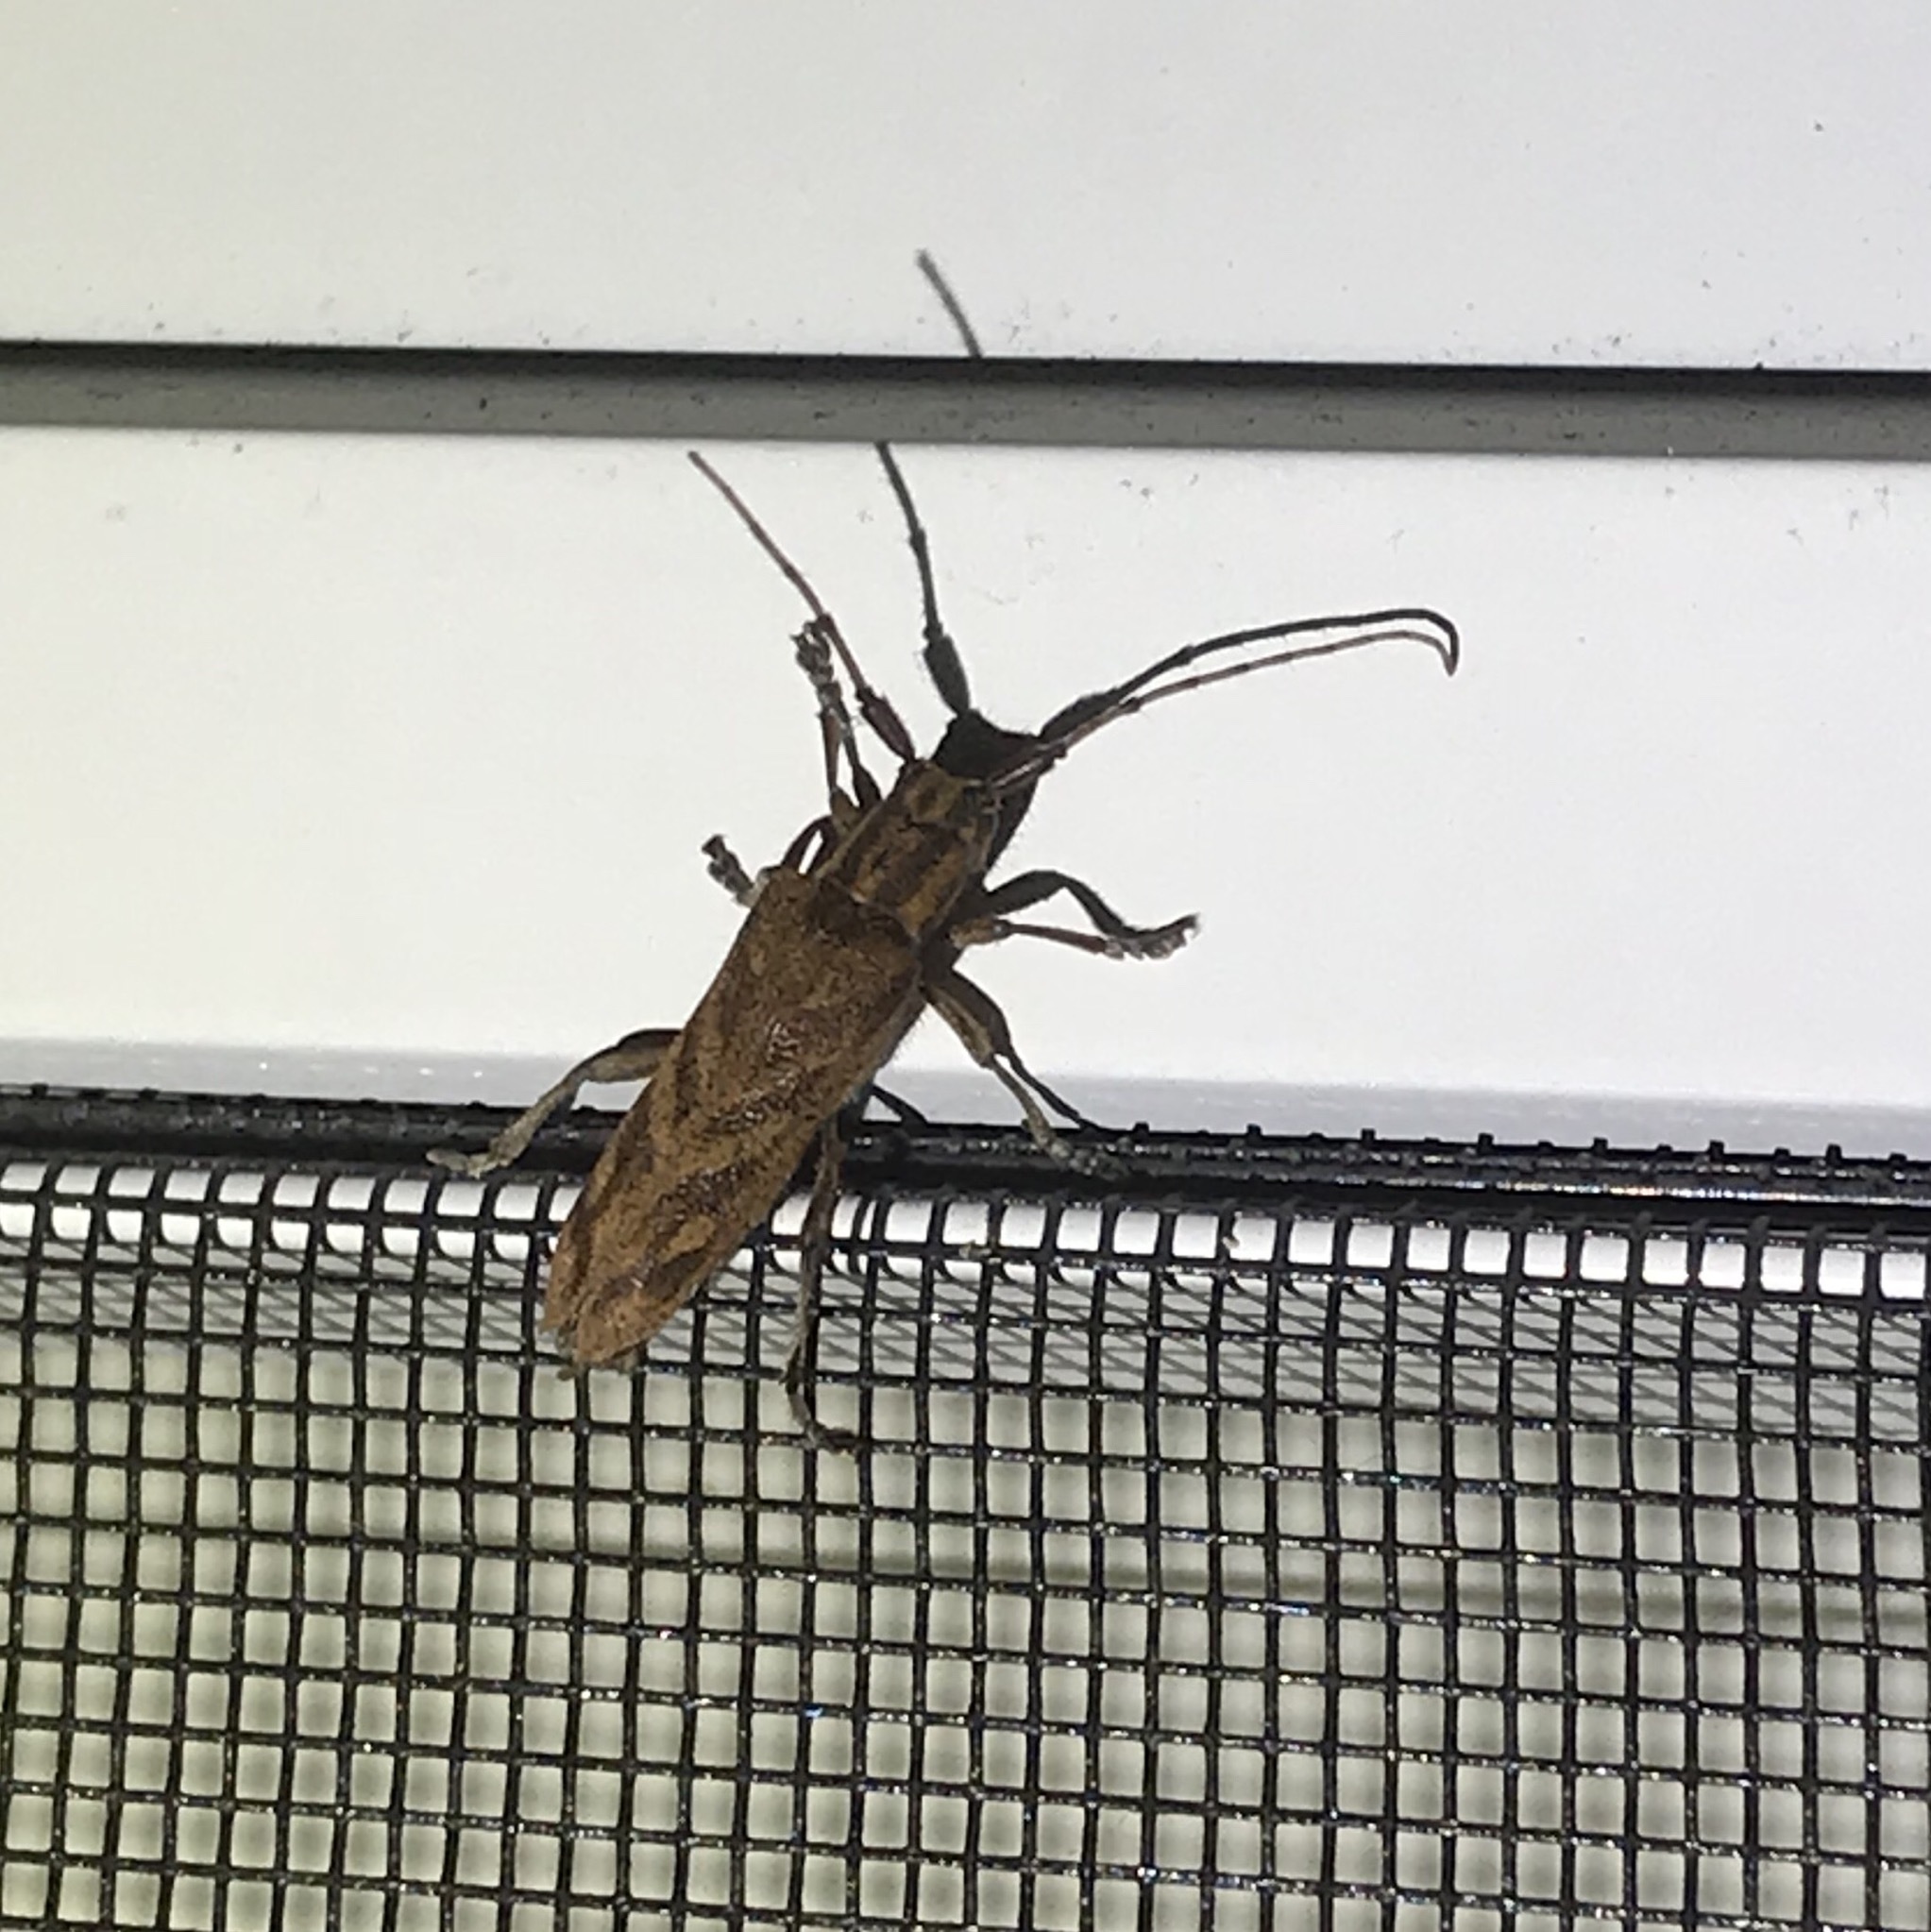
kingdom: Animalia
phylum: Arthropoda
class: Insecta
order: Coleoptera
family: Cerambycidae
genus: Saperda
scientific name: Saperda obliqua
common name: Alder borer
